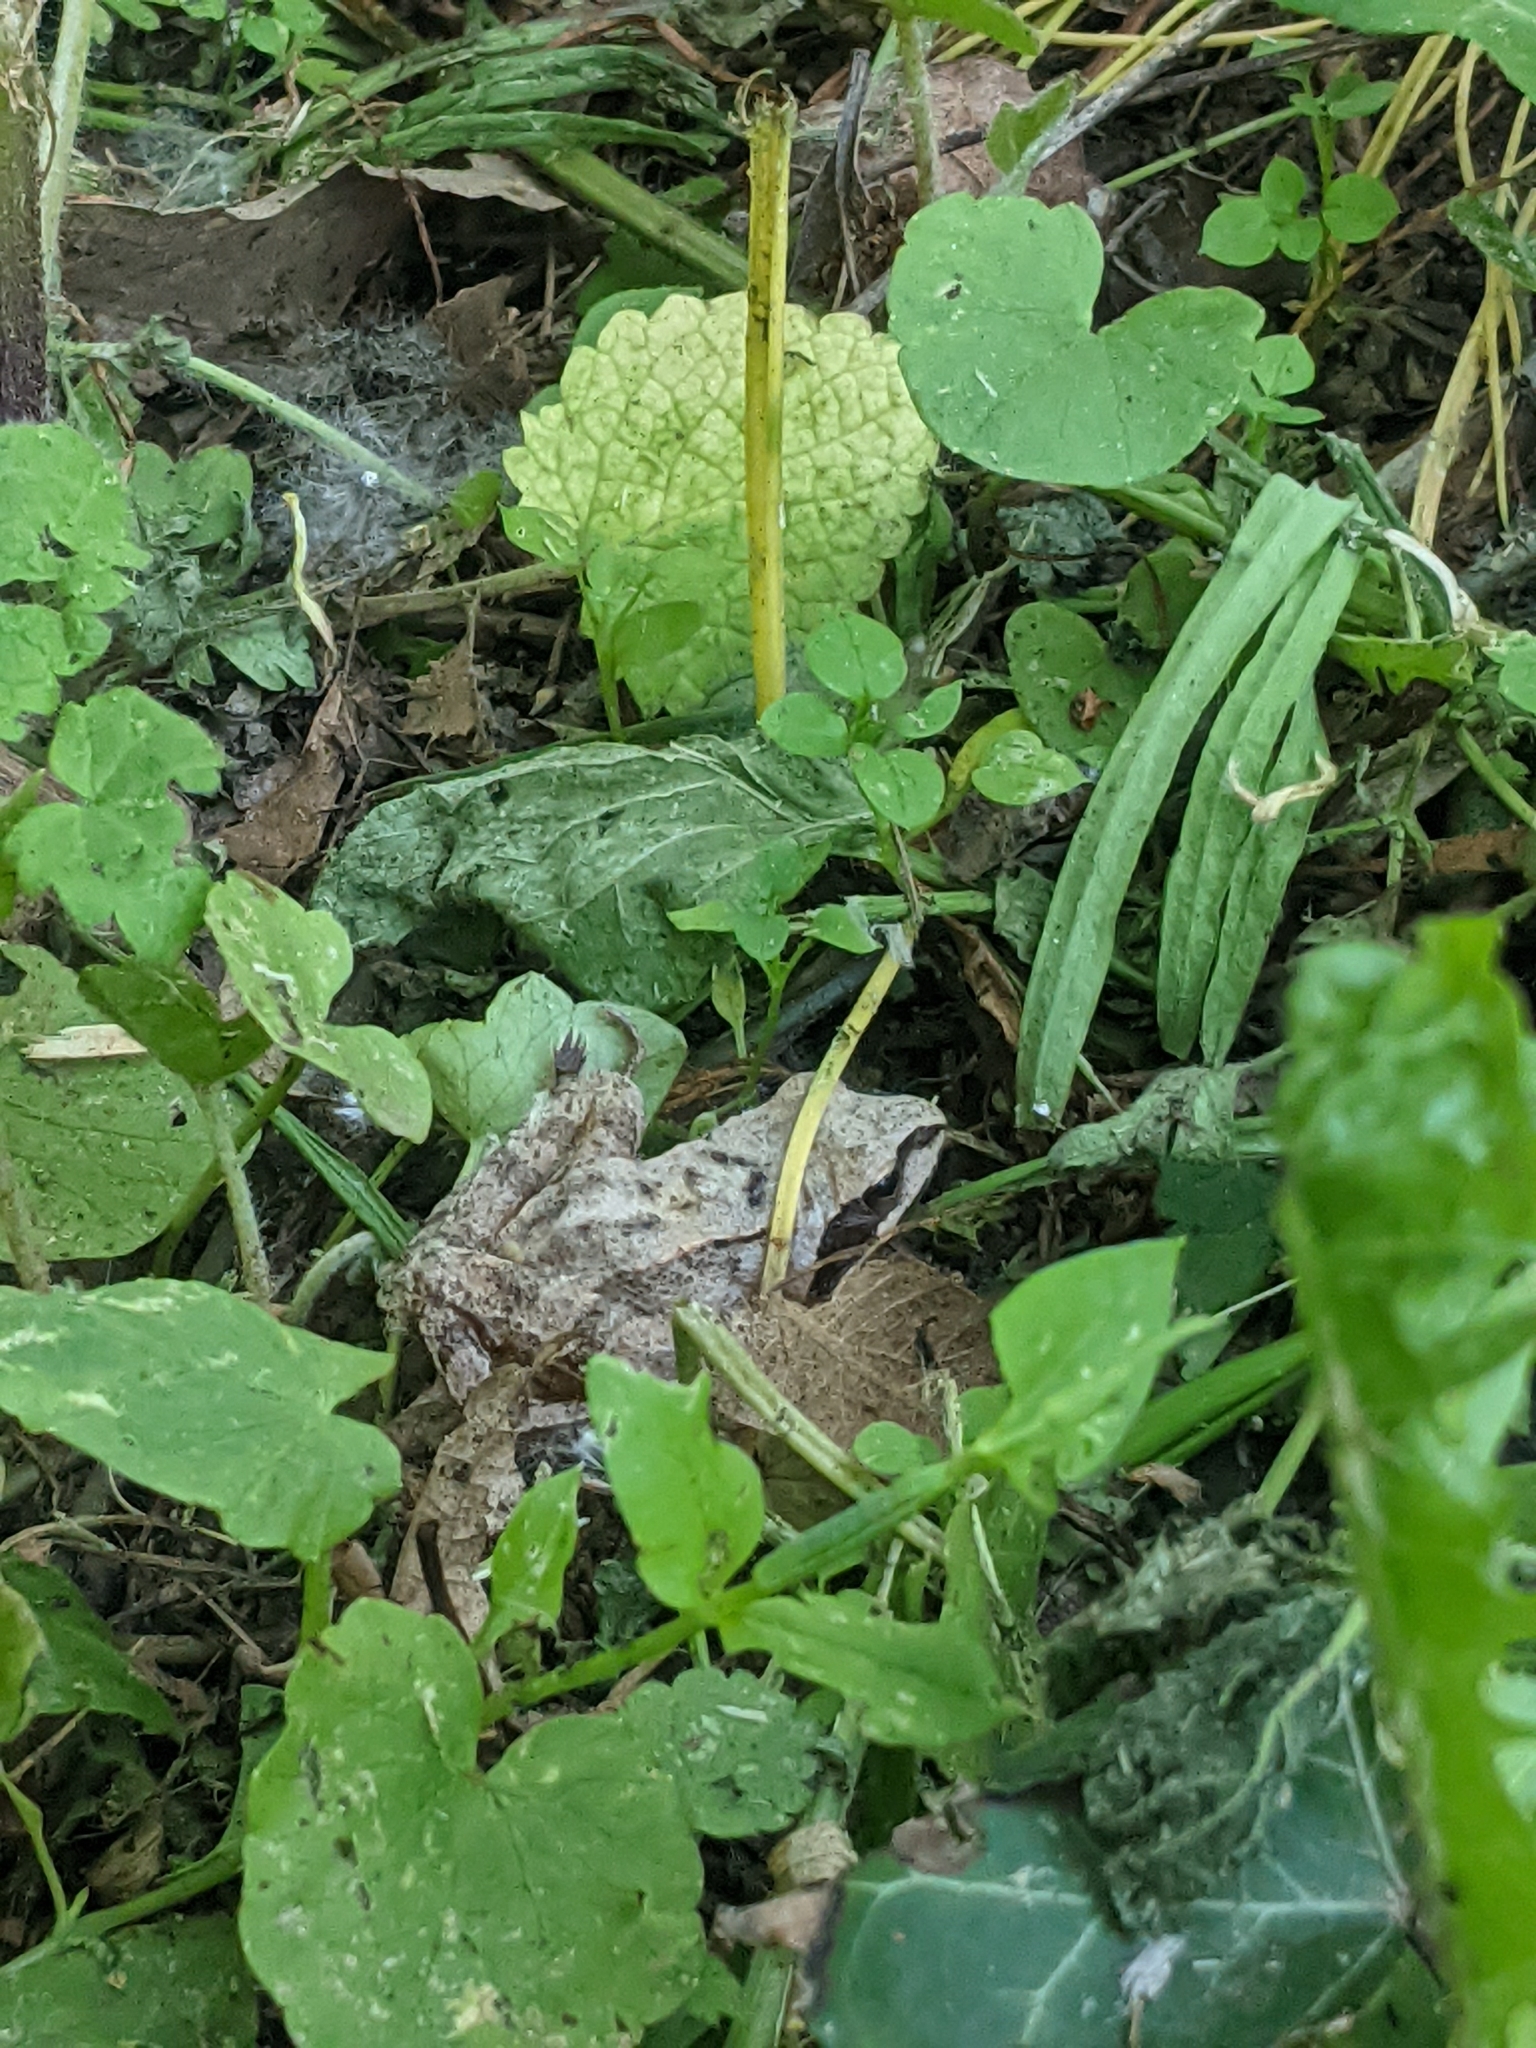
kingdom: Animalia
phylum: Chordata
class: Amphibia
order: Anura
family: Ranidae
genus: Rana
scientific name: Rana dalmatina
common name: Agile frog
